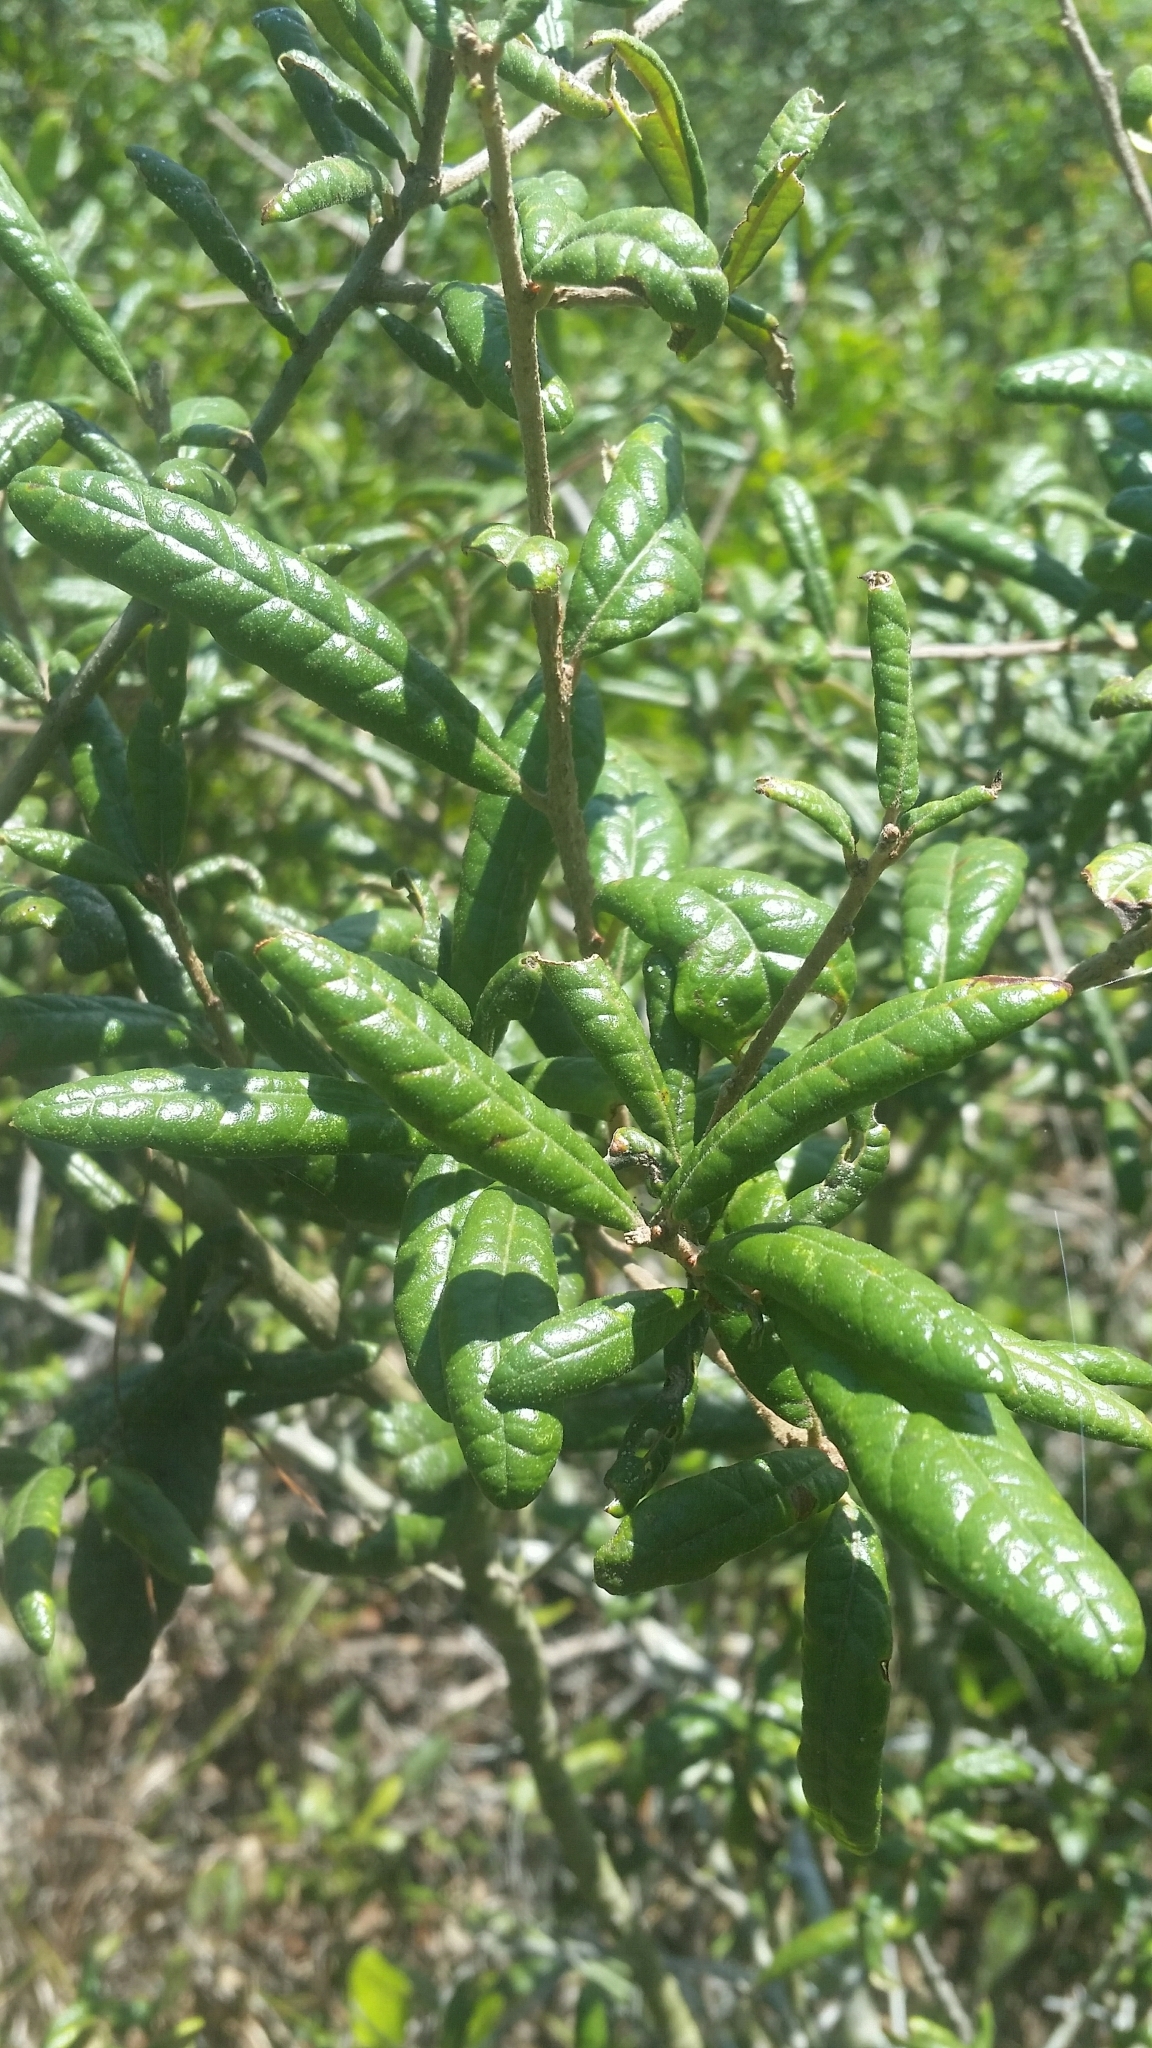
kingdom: Plantae
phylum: Tracheophyta
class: Magnoliopsida
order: Fagales
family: Fagaceae
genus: Quercus
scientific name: Quercus geminata
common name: Sand live oak
